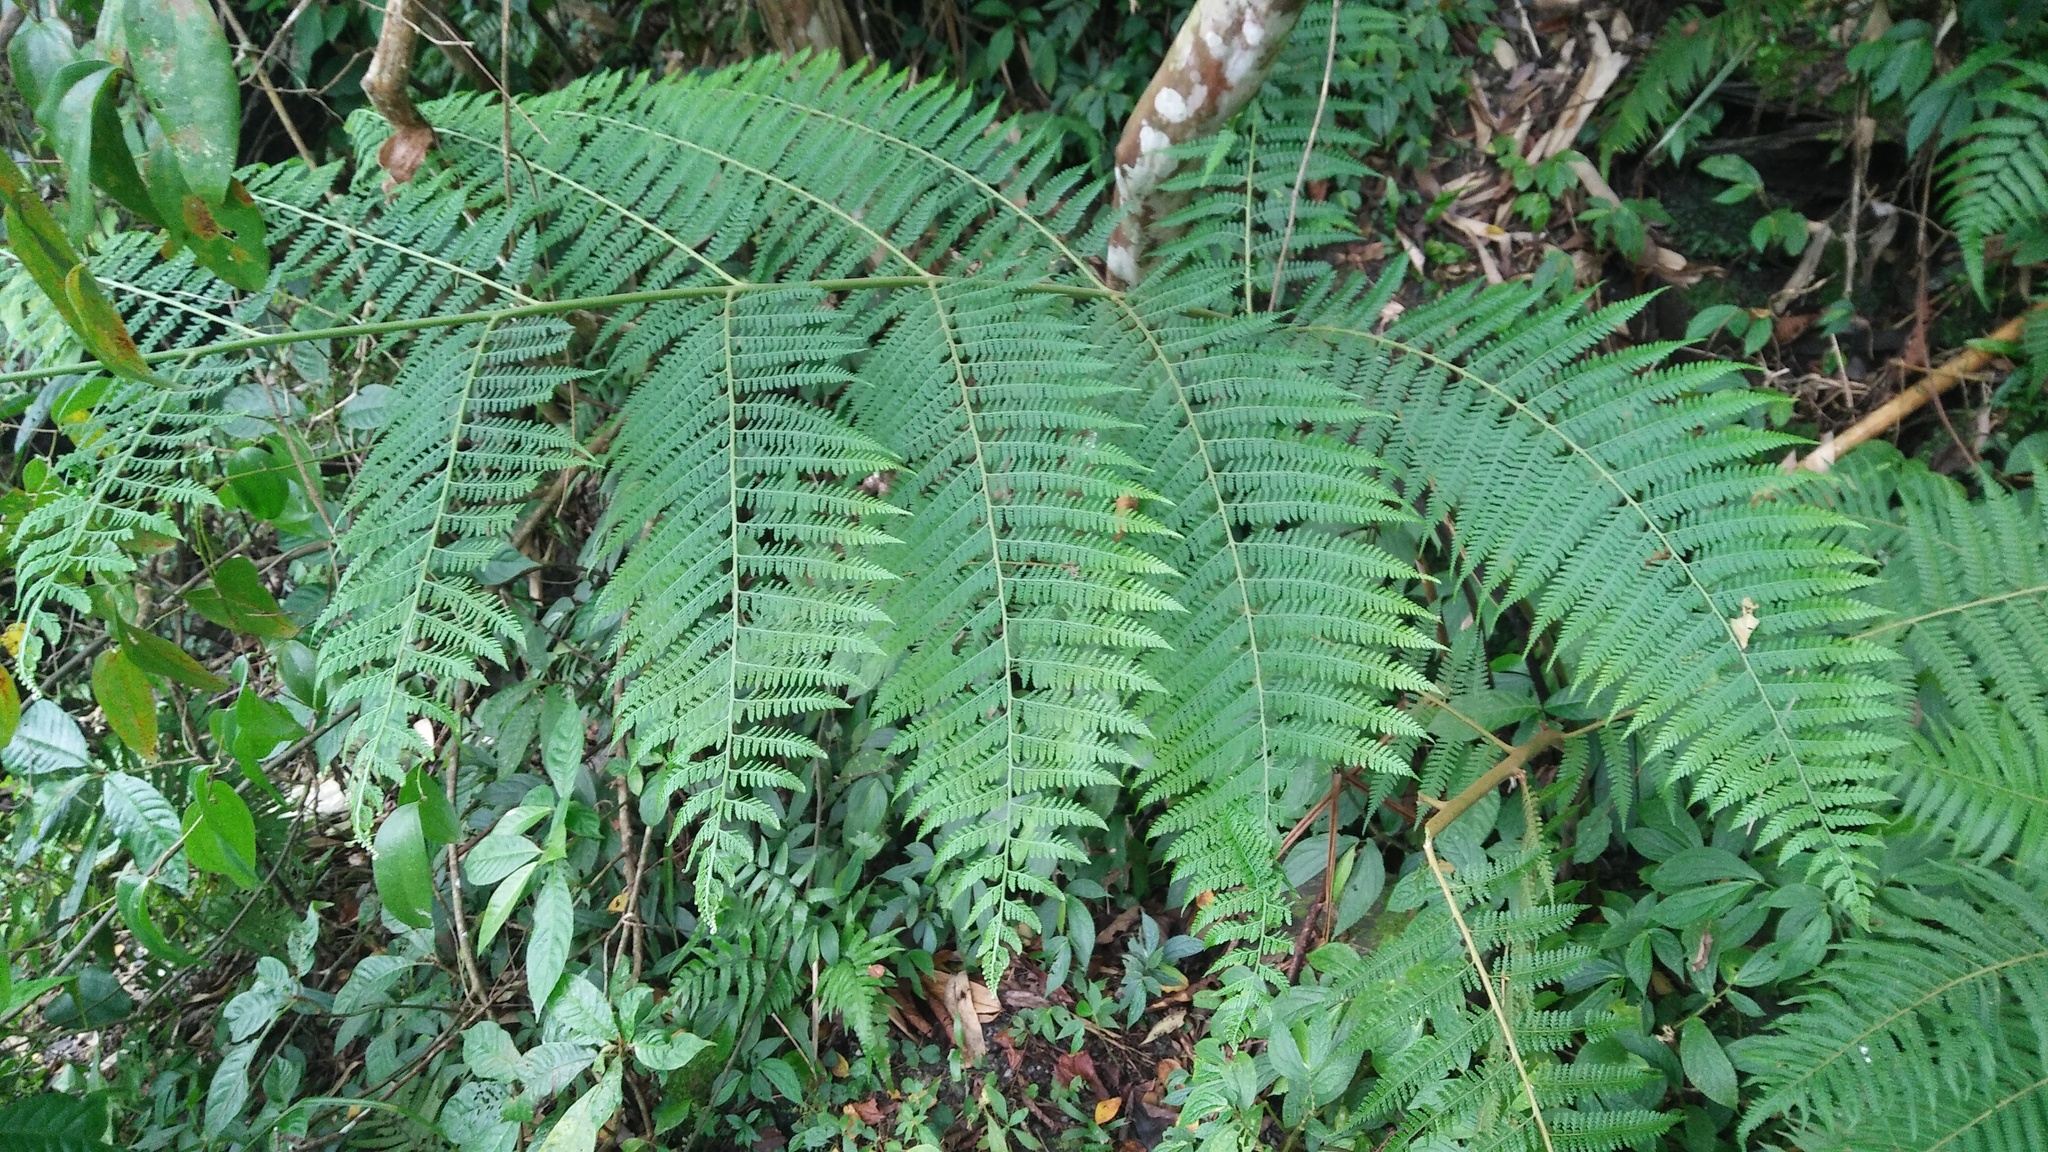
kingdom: Plantae
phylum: Tracheophyta
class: Polypodiopsida
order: Polypodiales
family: Dennstaedtiaceae
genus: Microlepia
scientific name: Microlepia smithii
